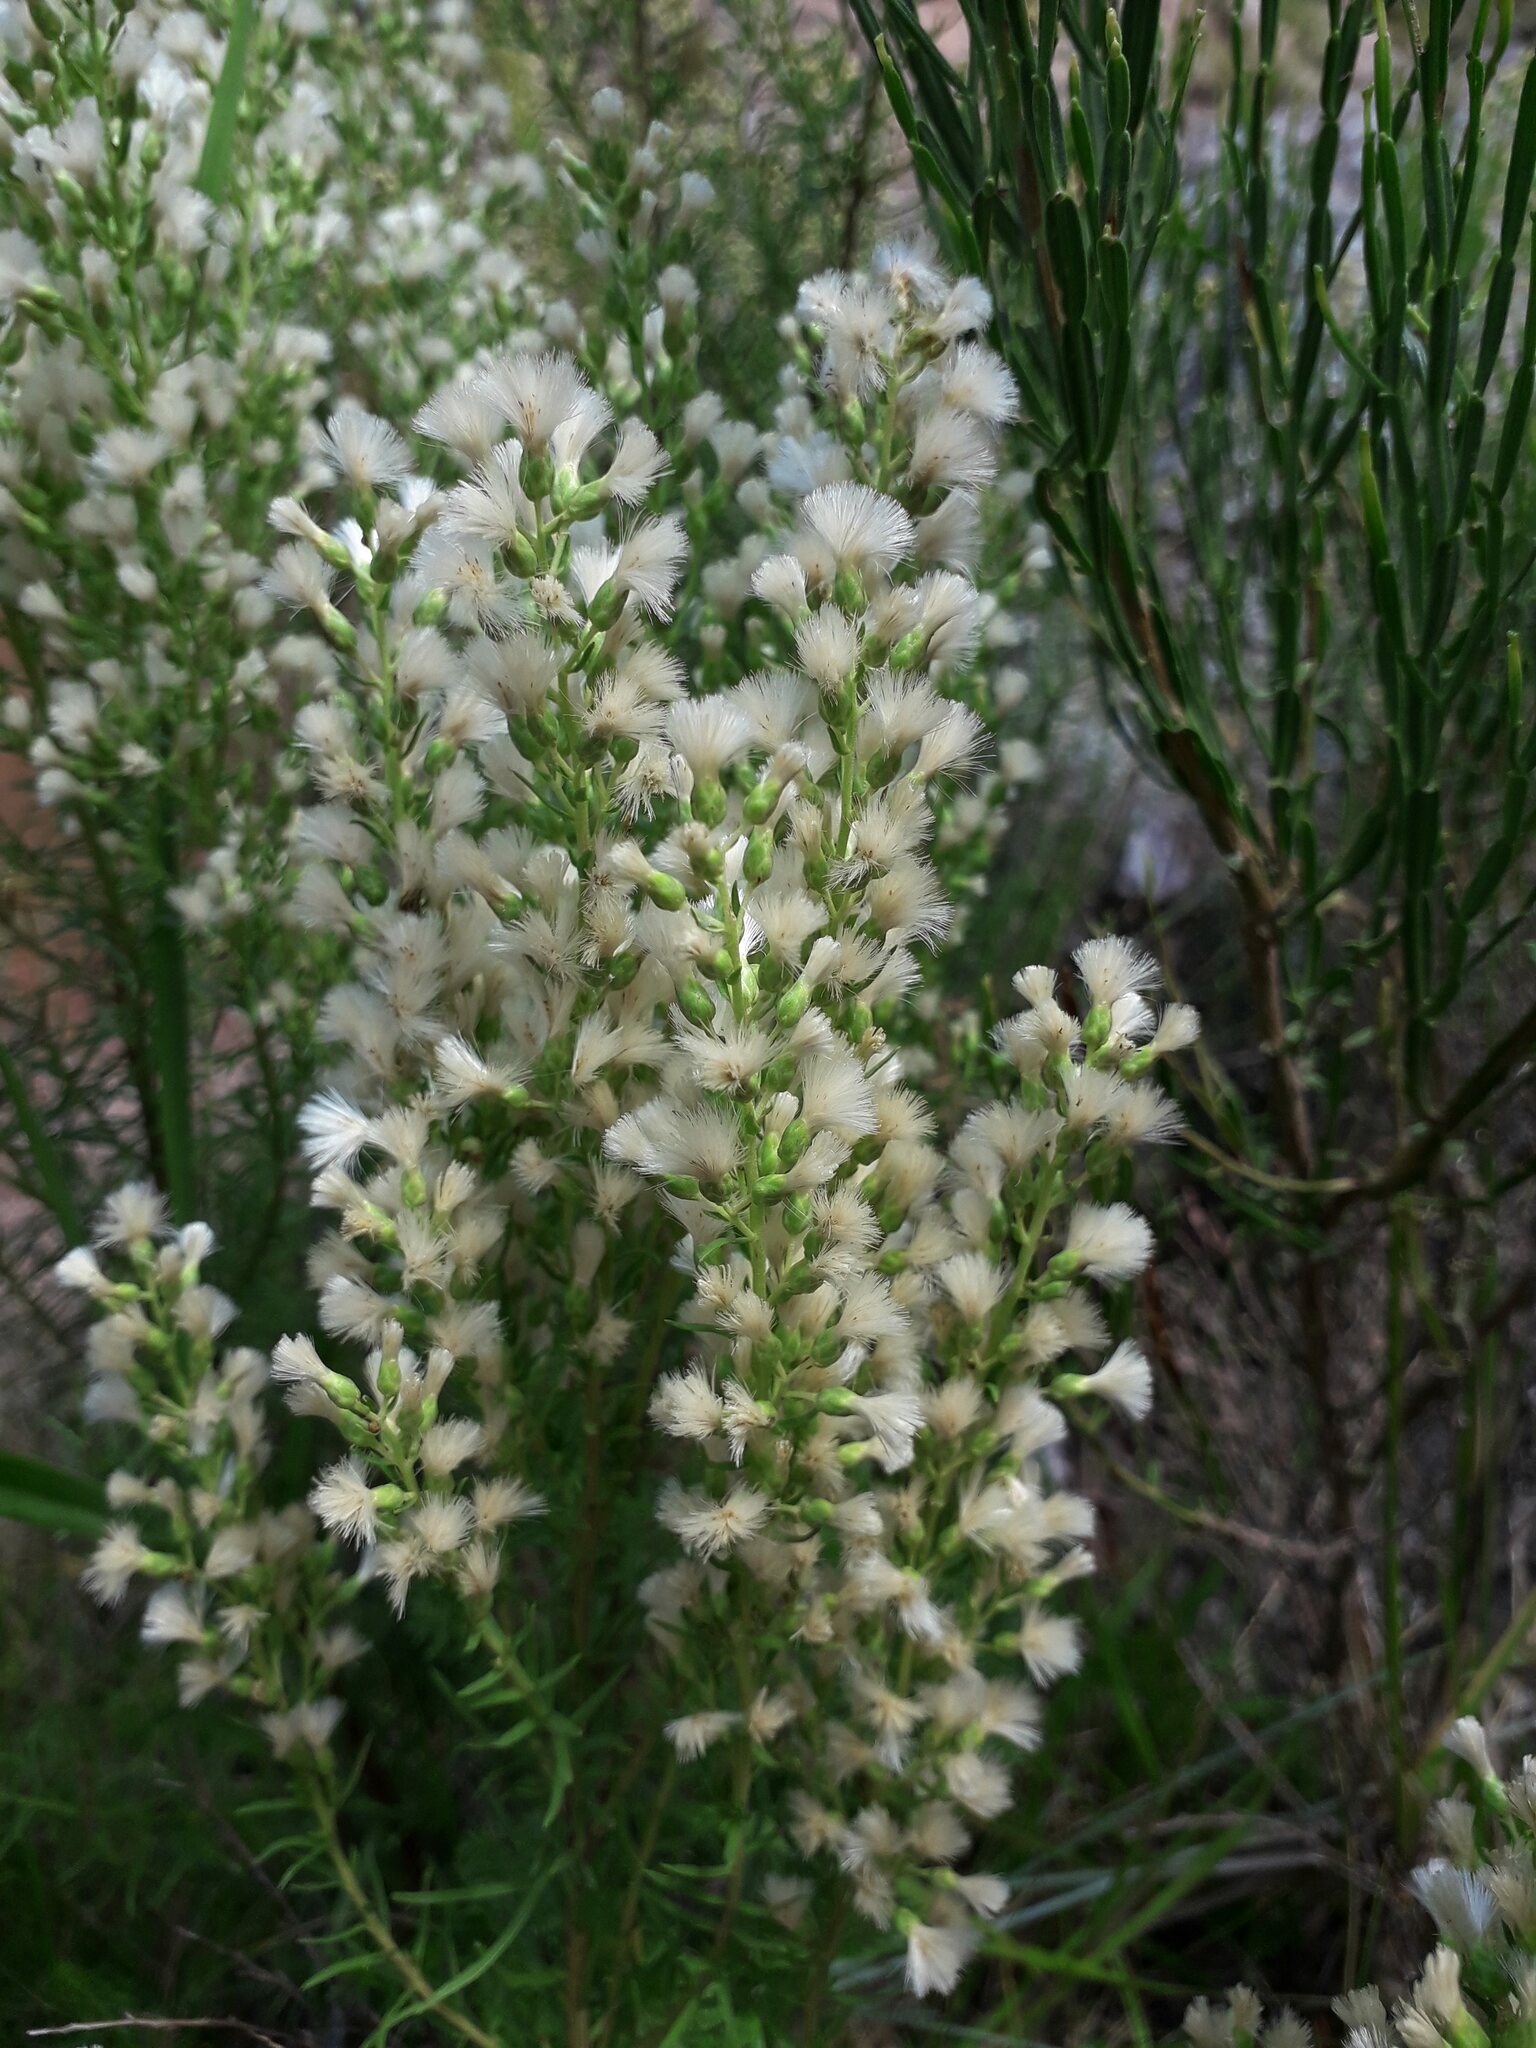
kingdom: Plantae
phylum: Tracheophyta
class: Magnoliopsida
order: Asterales
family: Asteraceae
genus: Baccharis
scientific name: Baccharis coridifolia
